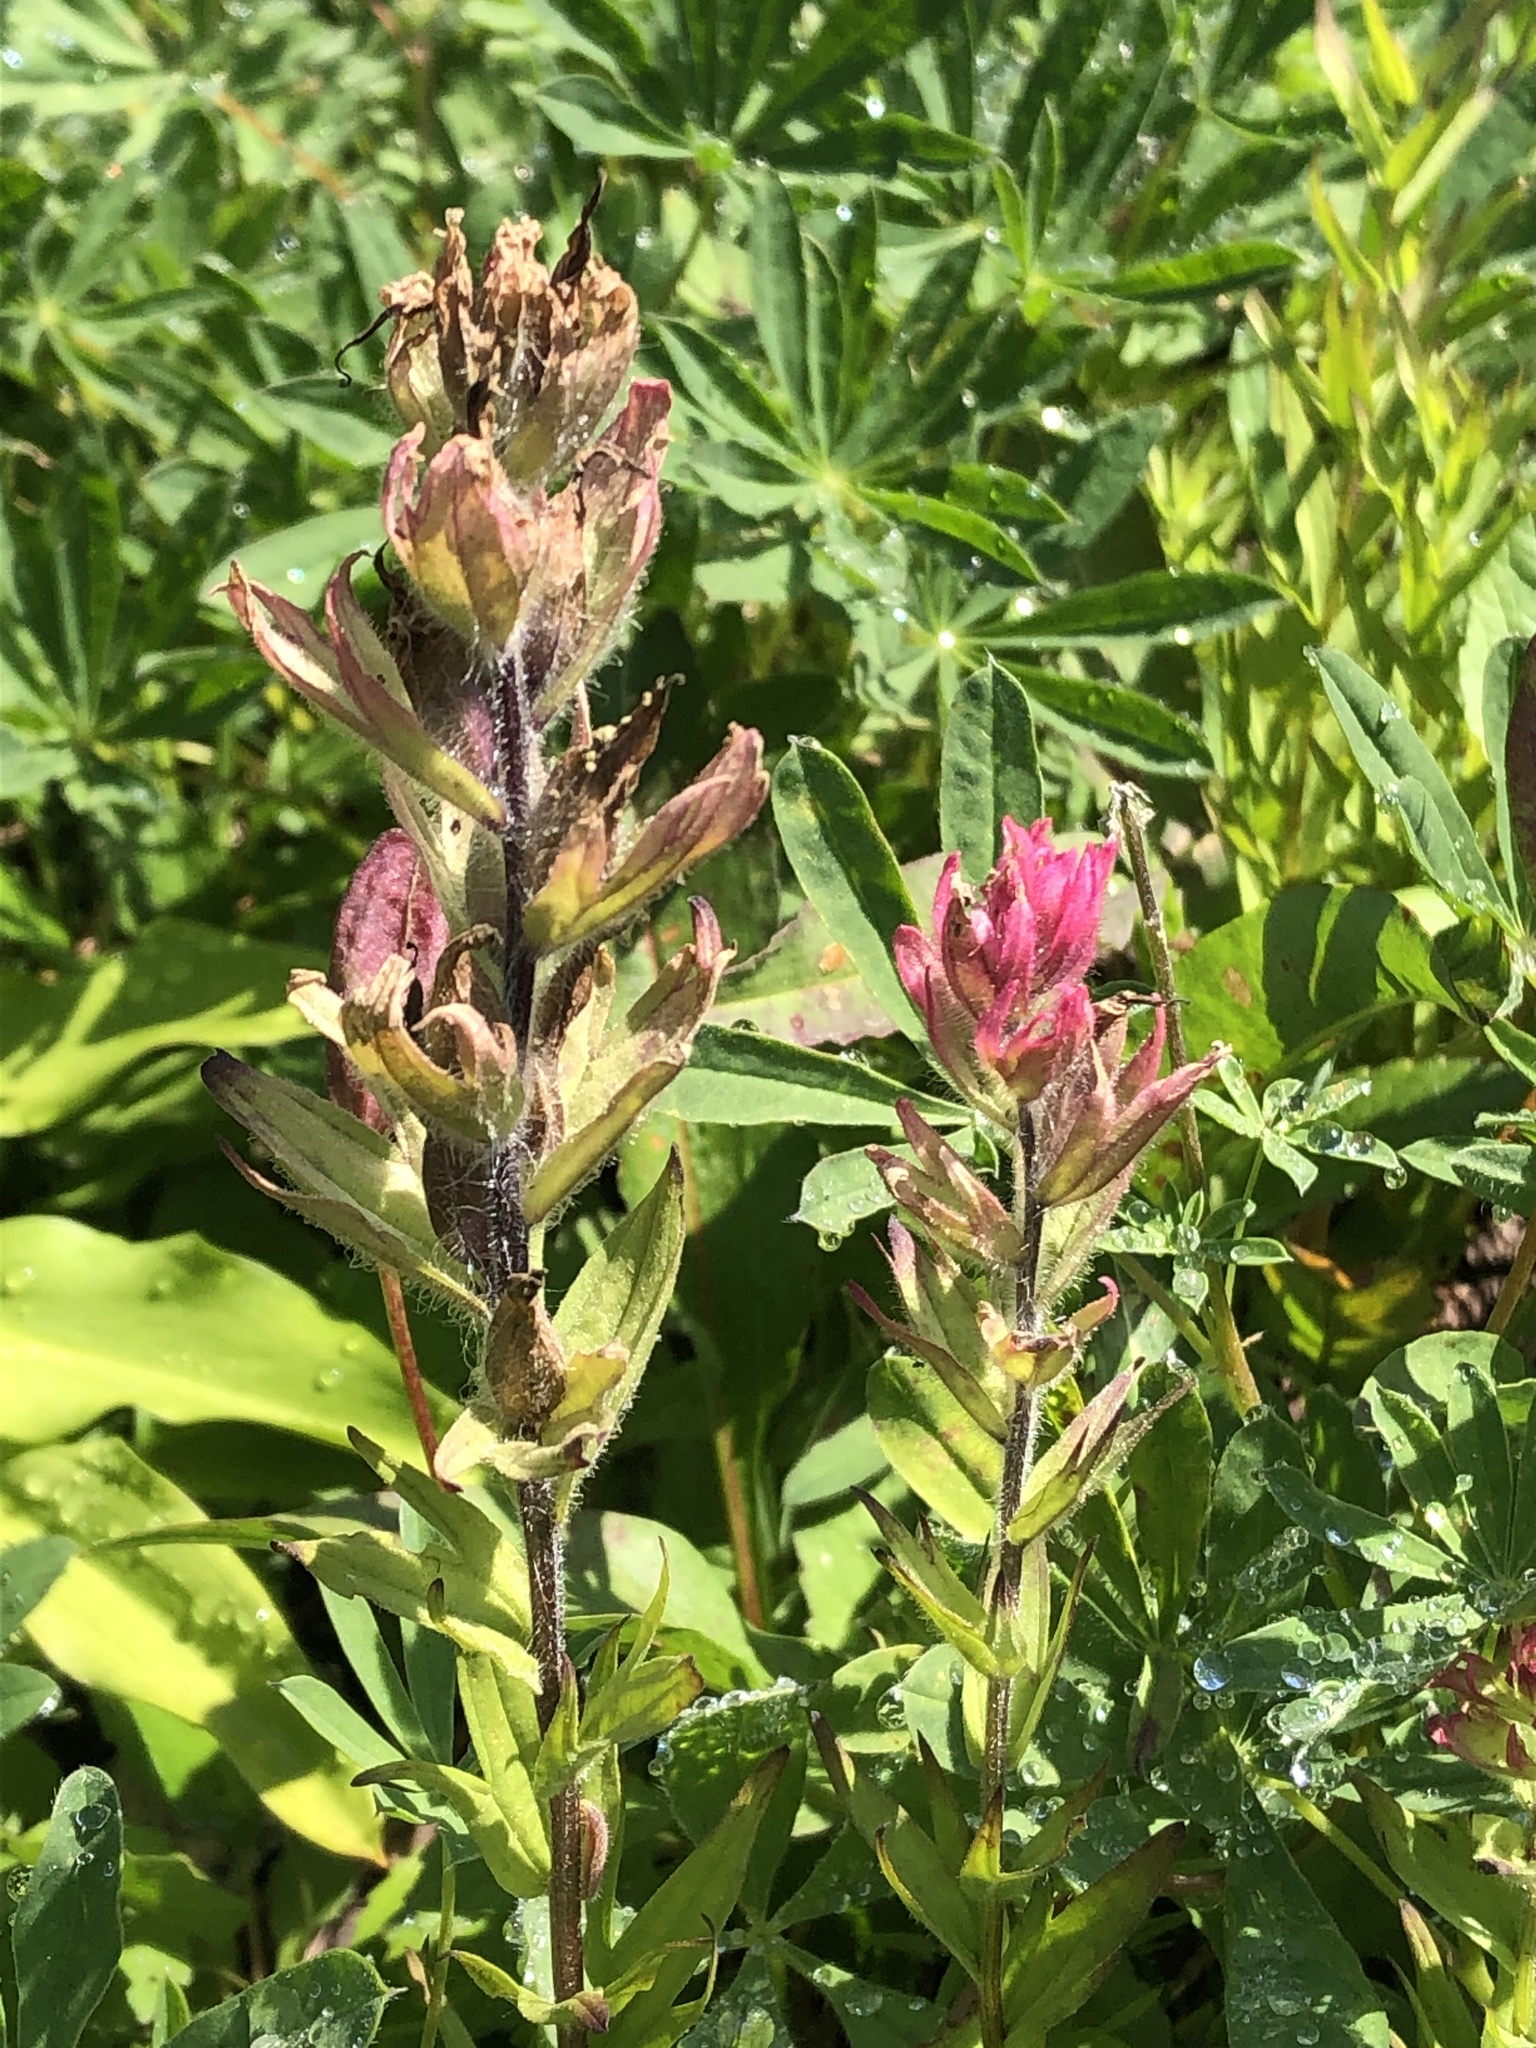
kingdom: Plantae
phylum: Tracheophyta
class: Magnoliopsida
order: Lamiales
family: Orobanchaceae
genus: Castilleja
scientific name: Castilleja parviflora
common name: Mountain paintbrush
